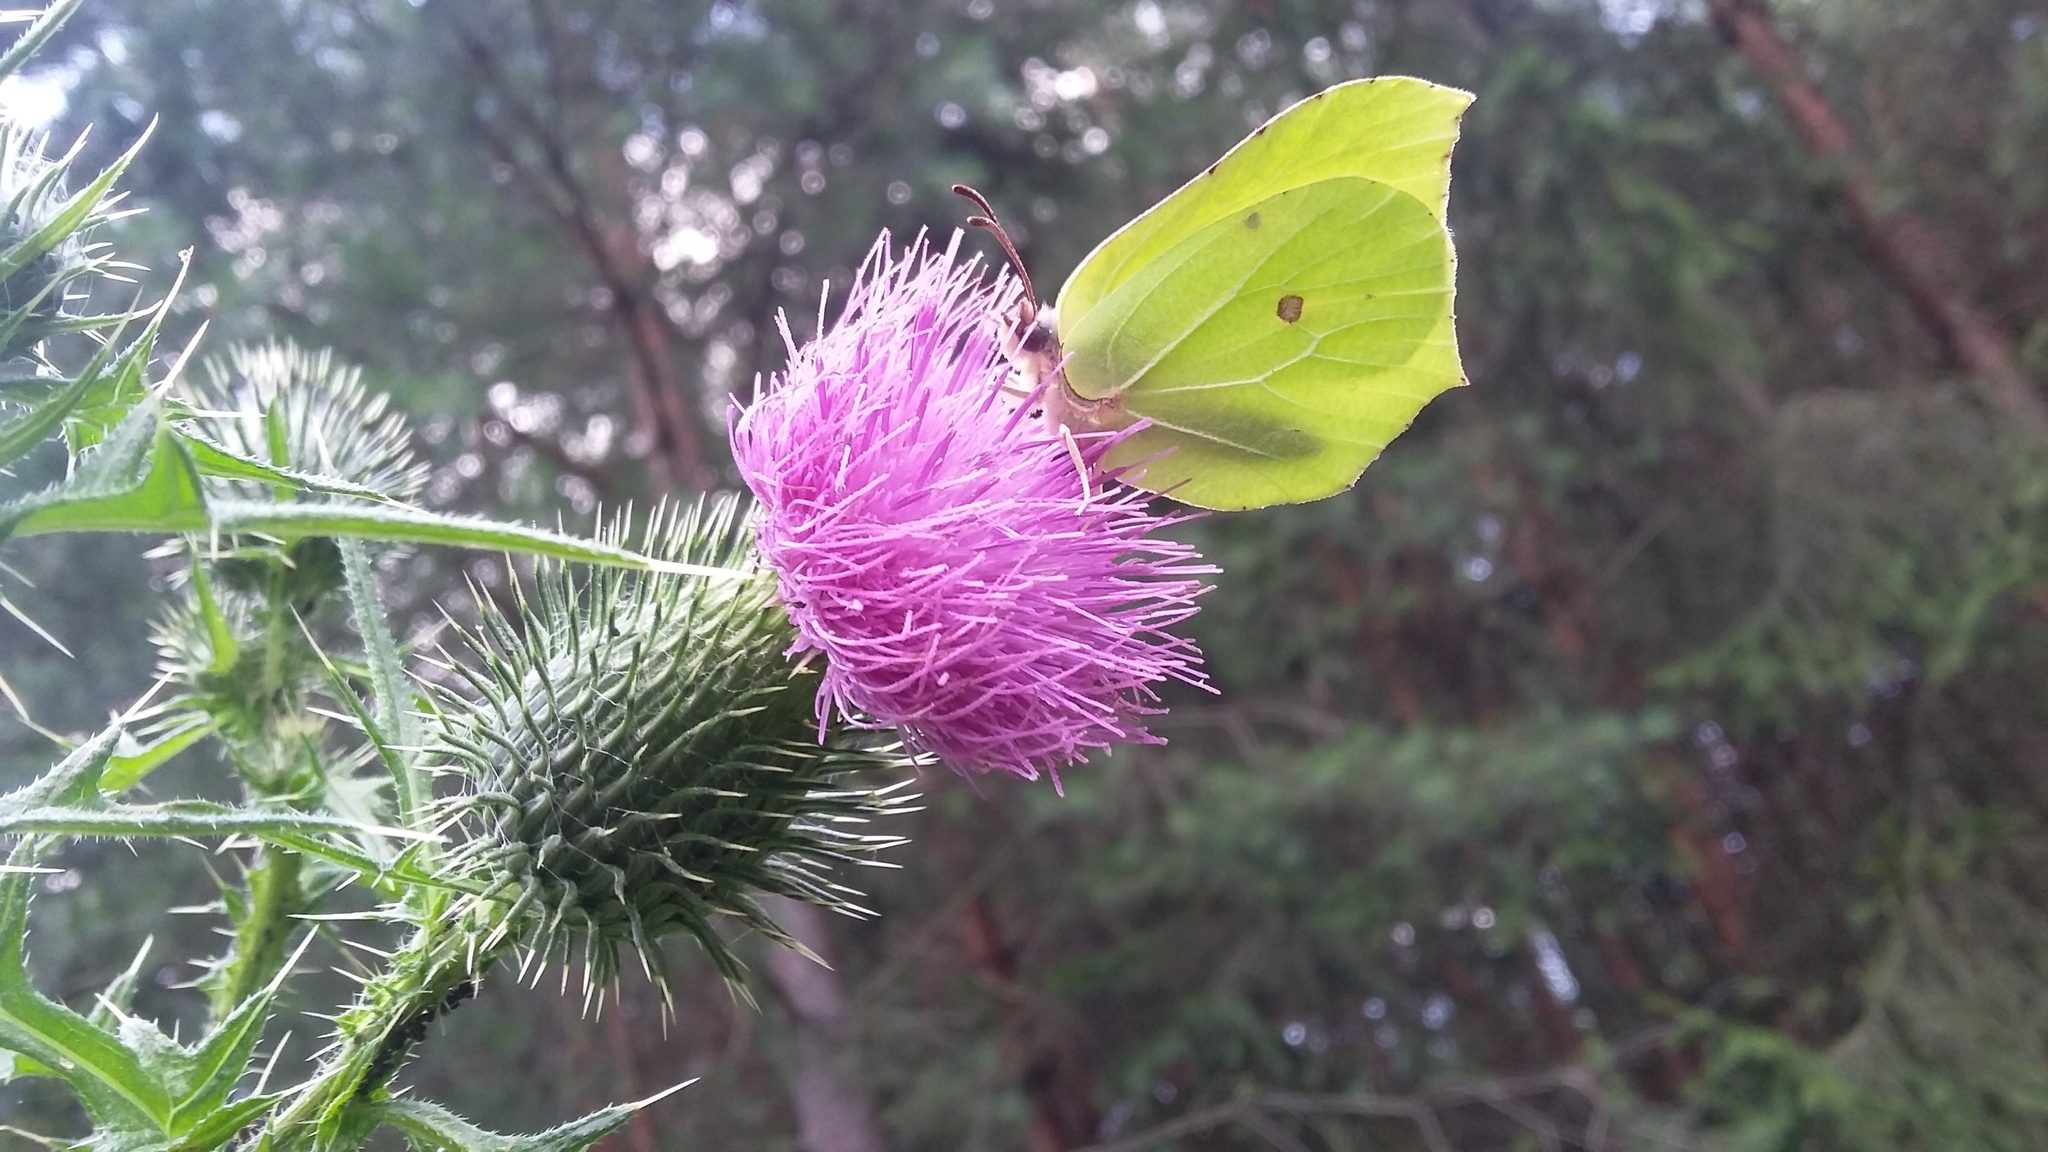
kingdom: Animalia
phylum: Arthropoda
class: Insecta
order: Lepidoptera
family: Pieridae
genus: Gonepteryx
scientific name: Gonepteryx rhamni
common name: Brimstone
